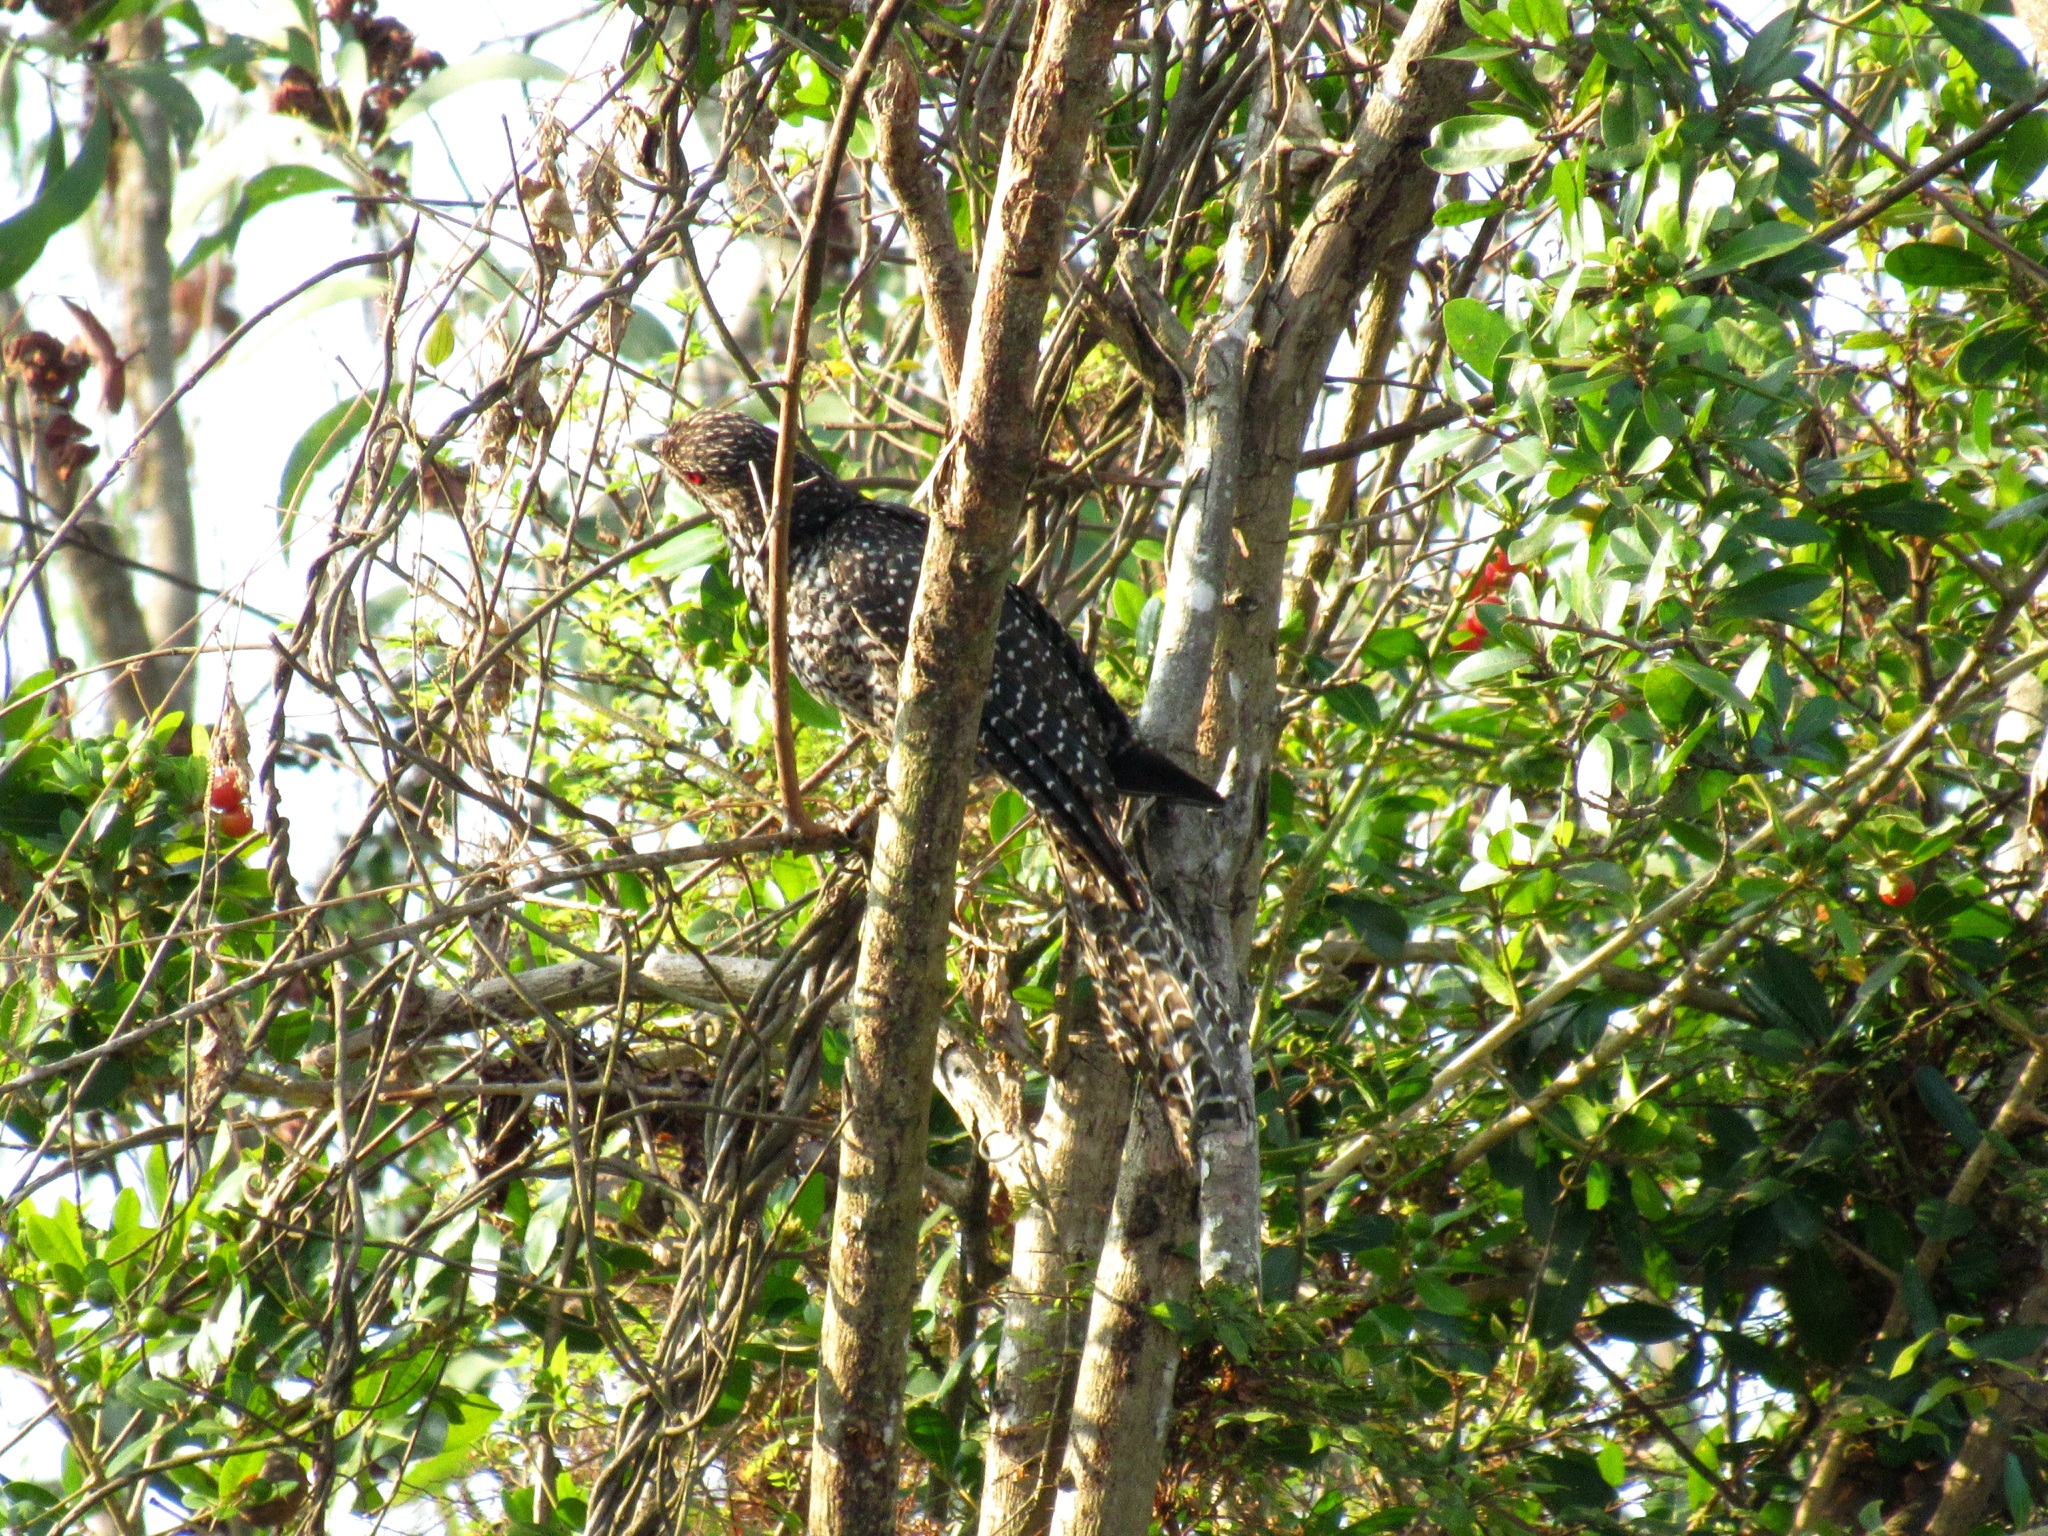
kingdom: Animalia
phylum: Chordata
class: Aves
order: Cuculiformes
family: Cuculidae
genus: Eudynamys
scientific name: Eudynamys scolopaceus
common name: Asian koel
